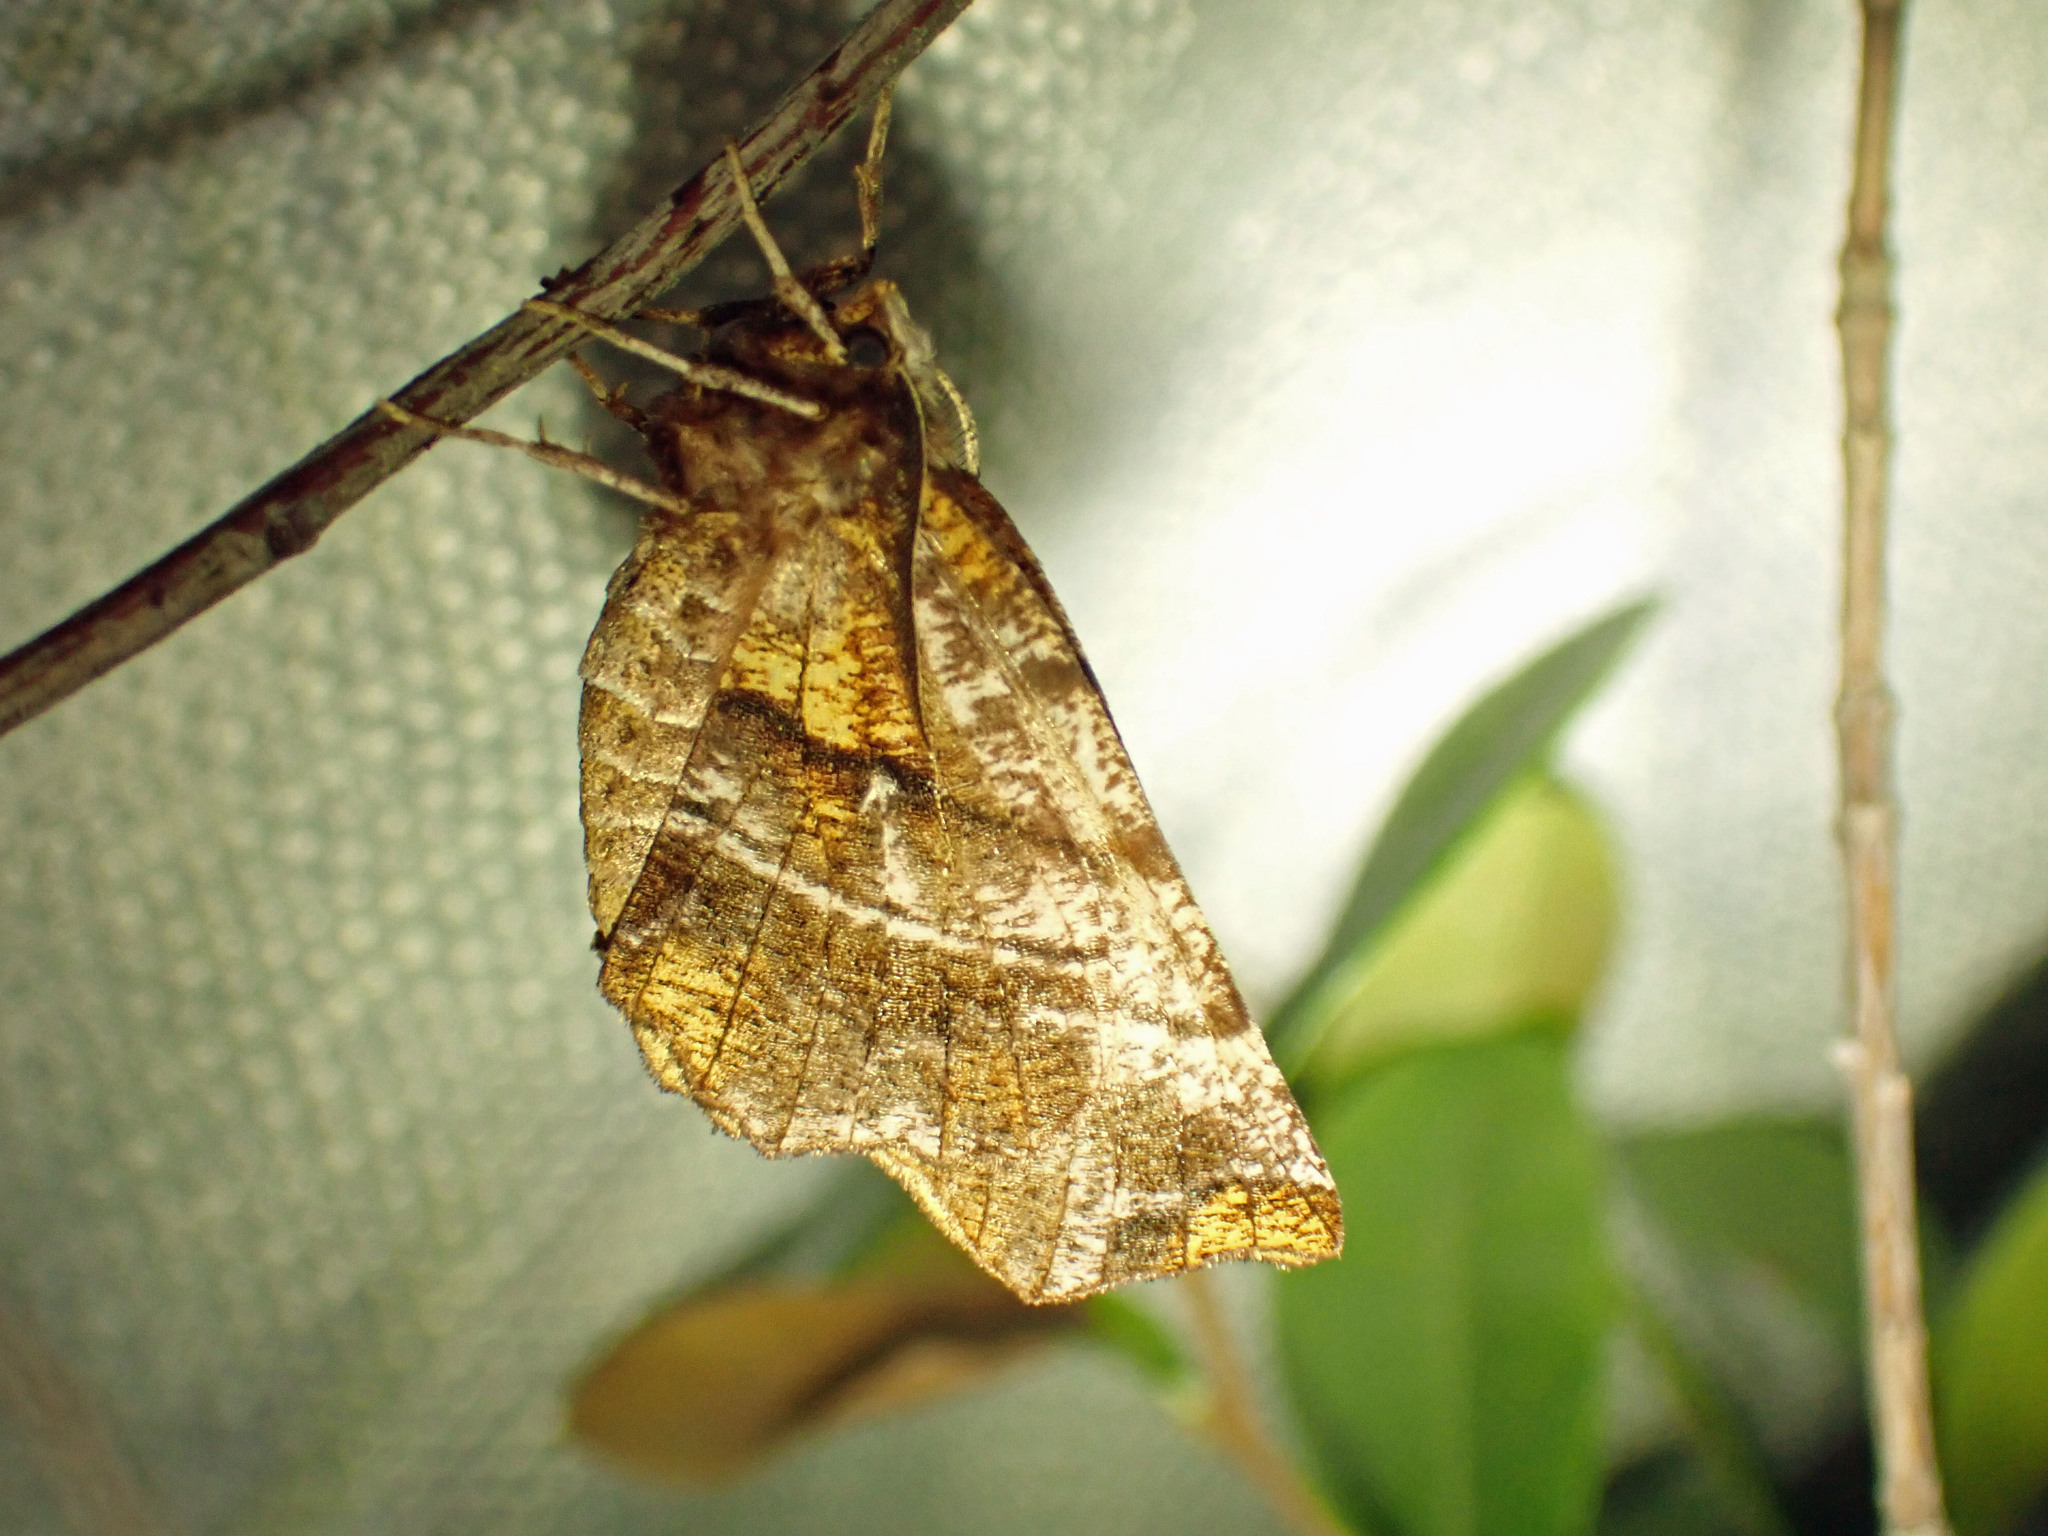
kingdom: Animalia
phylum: Arthropoda
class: Insecta
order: Lepidoptera
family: Geometridae
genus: Selenia
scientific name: Selenia alciphearia
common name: Brown-tipped thorn
